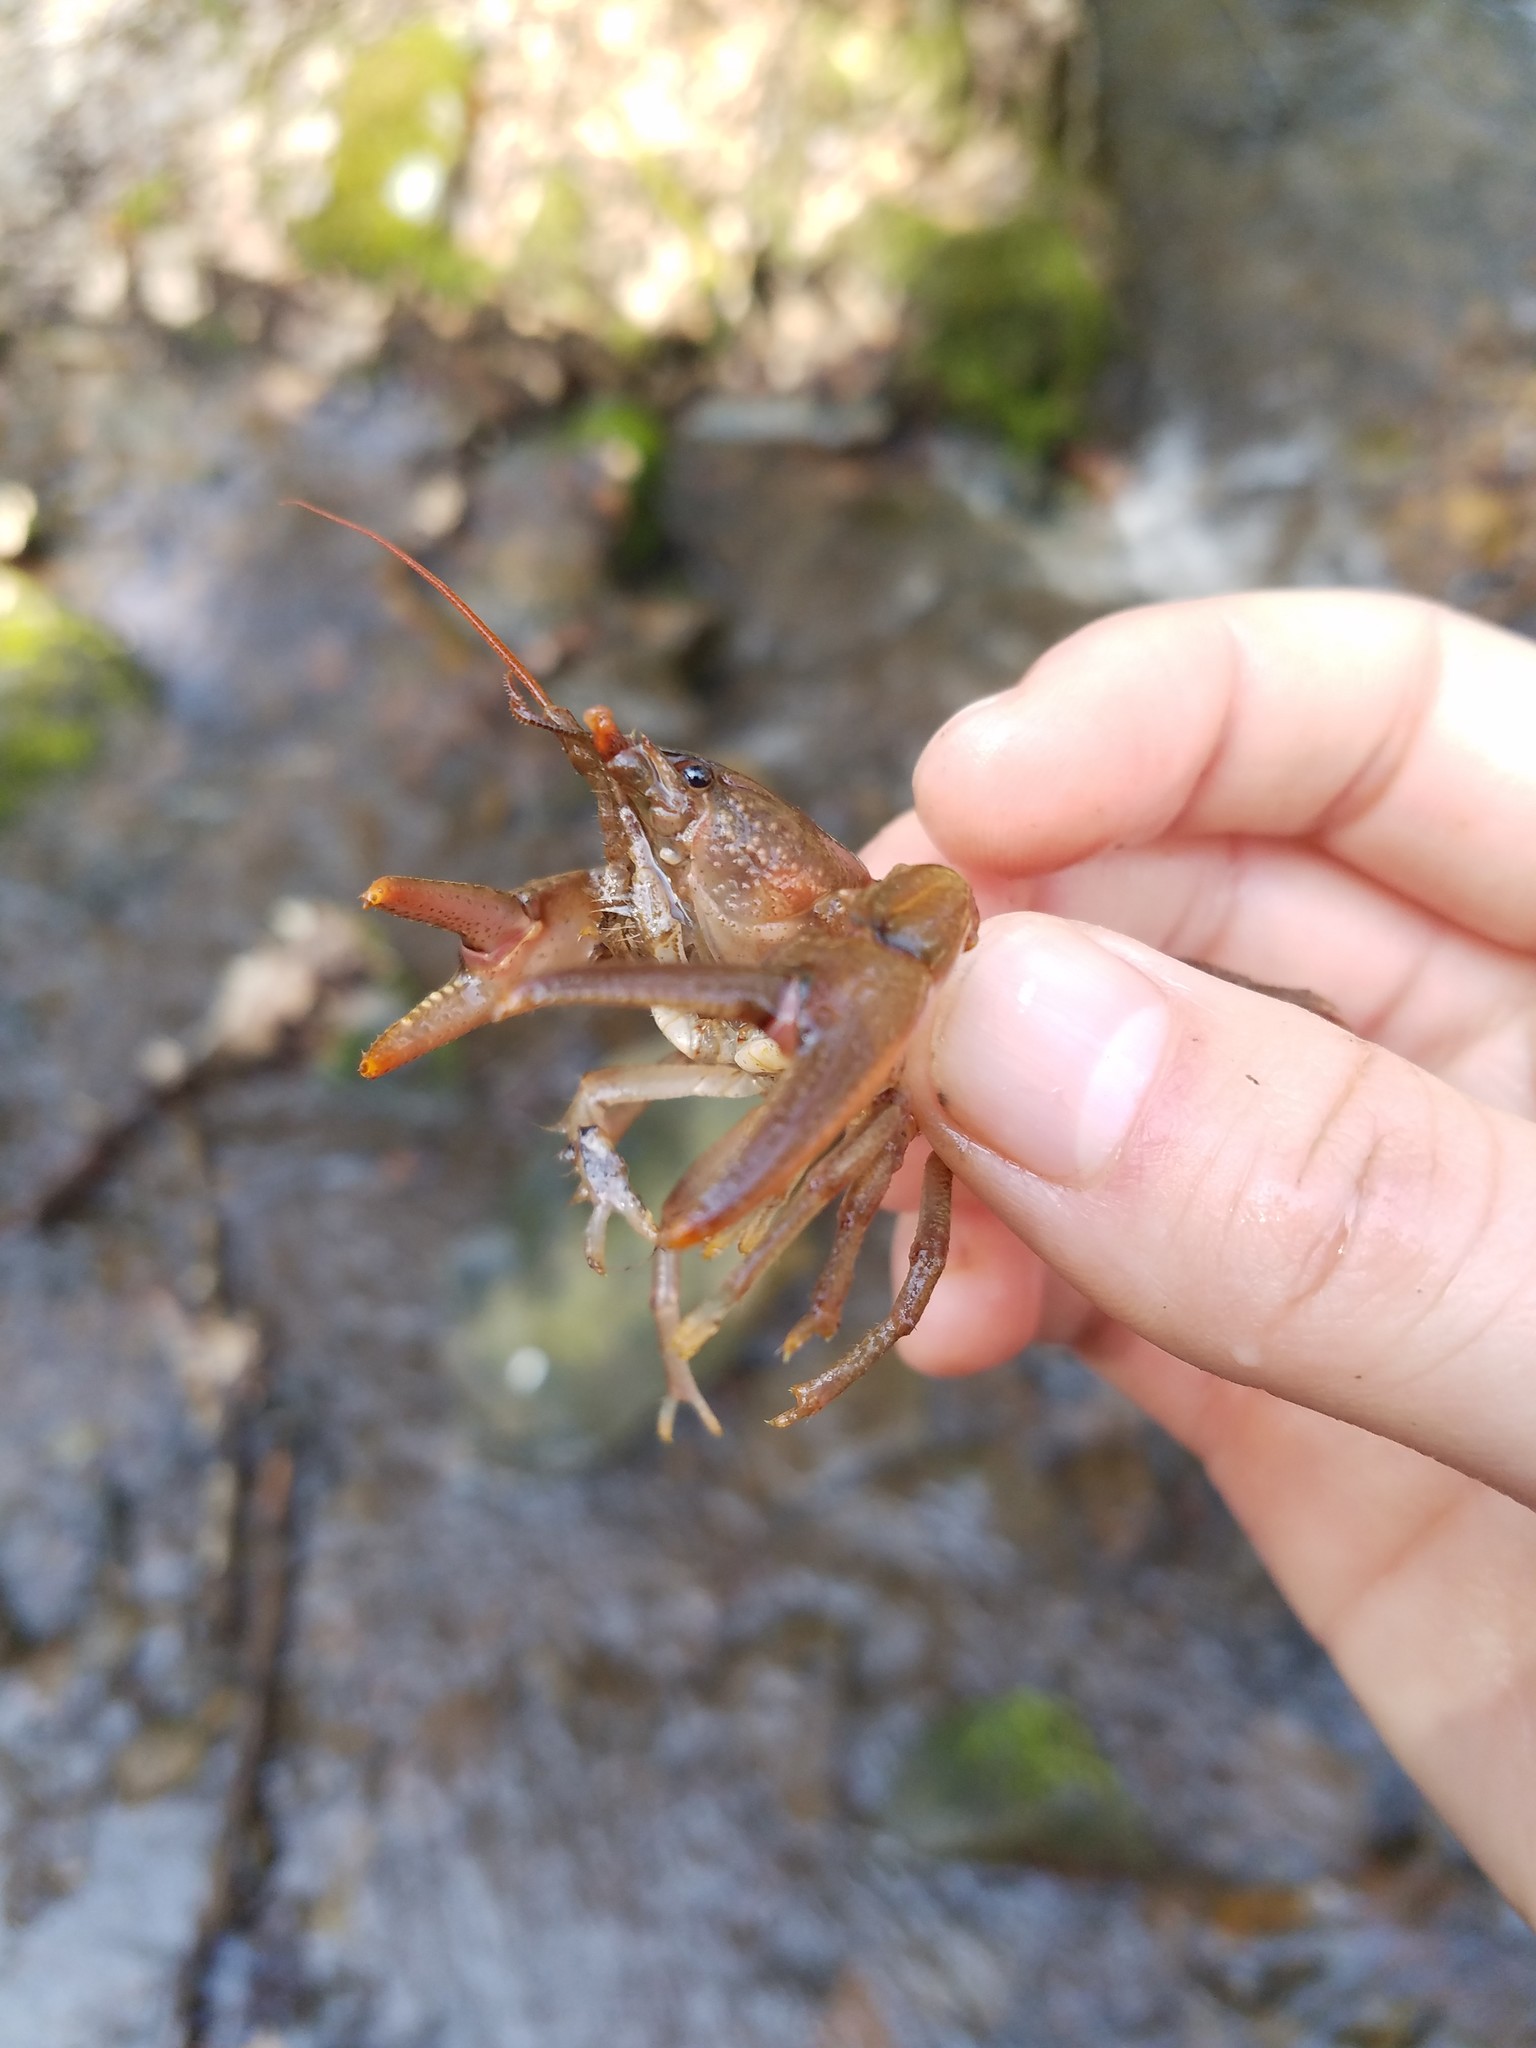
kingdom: Animalia
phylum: Arthropoda
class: Malacostraca
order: Decapoda
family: Cambaridae
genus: Cambarus
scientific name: Cambarus carinirostris
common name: Rock crayfish
